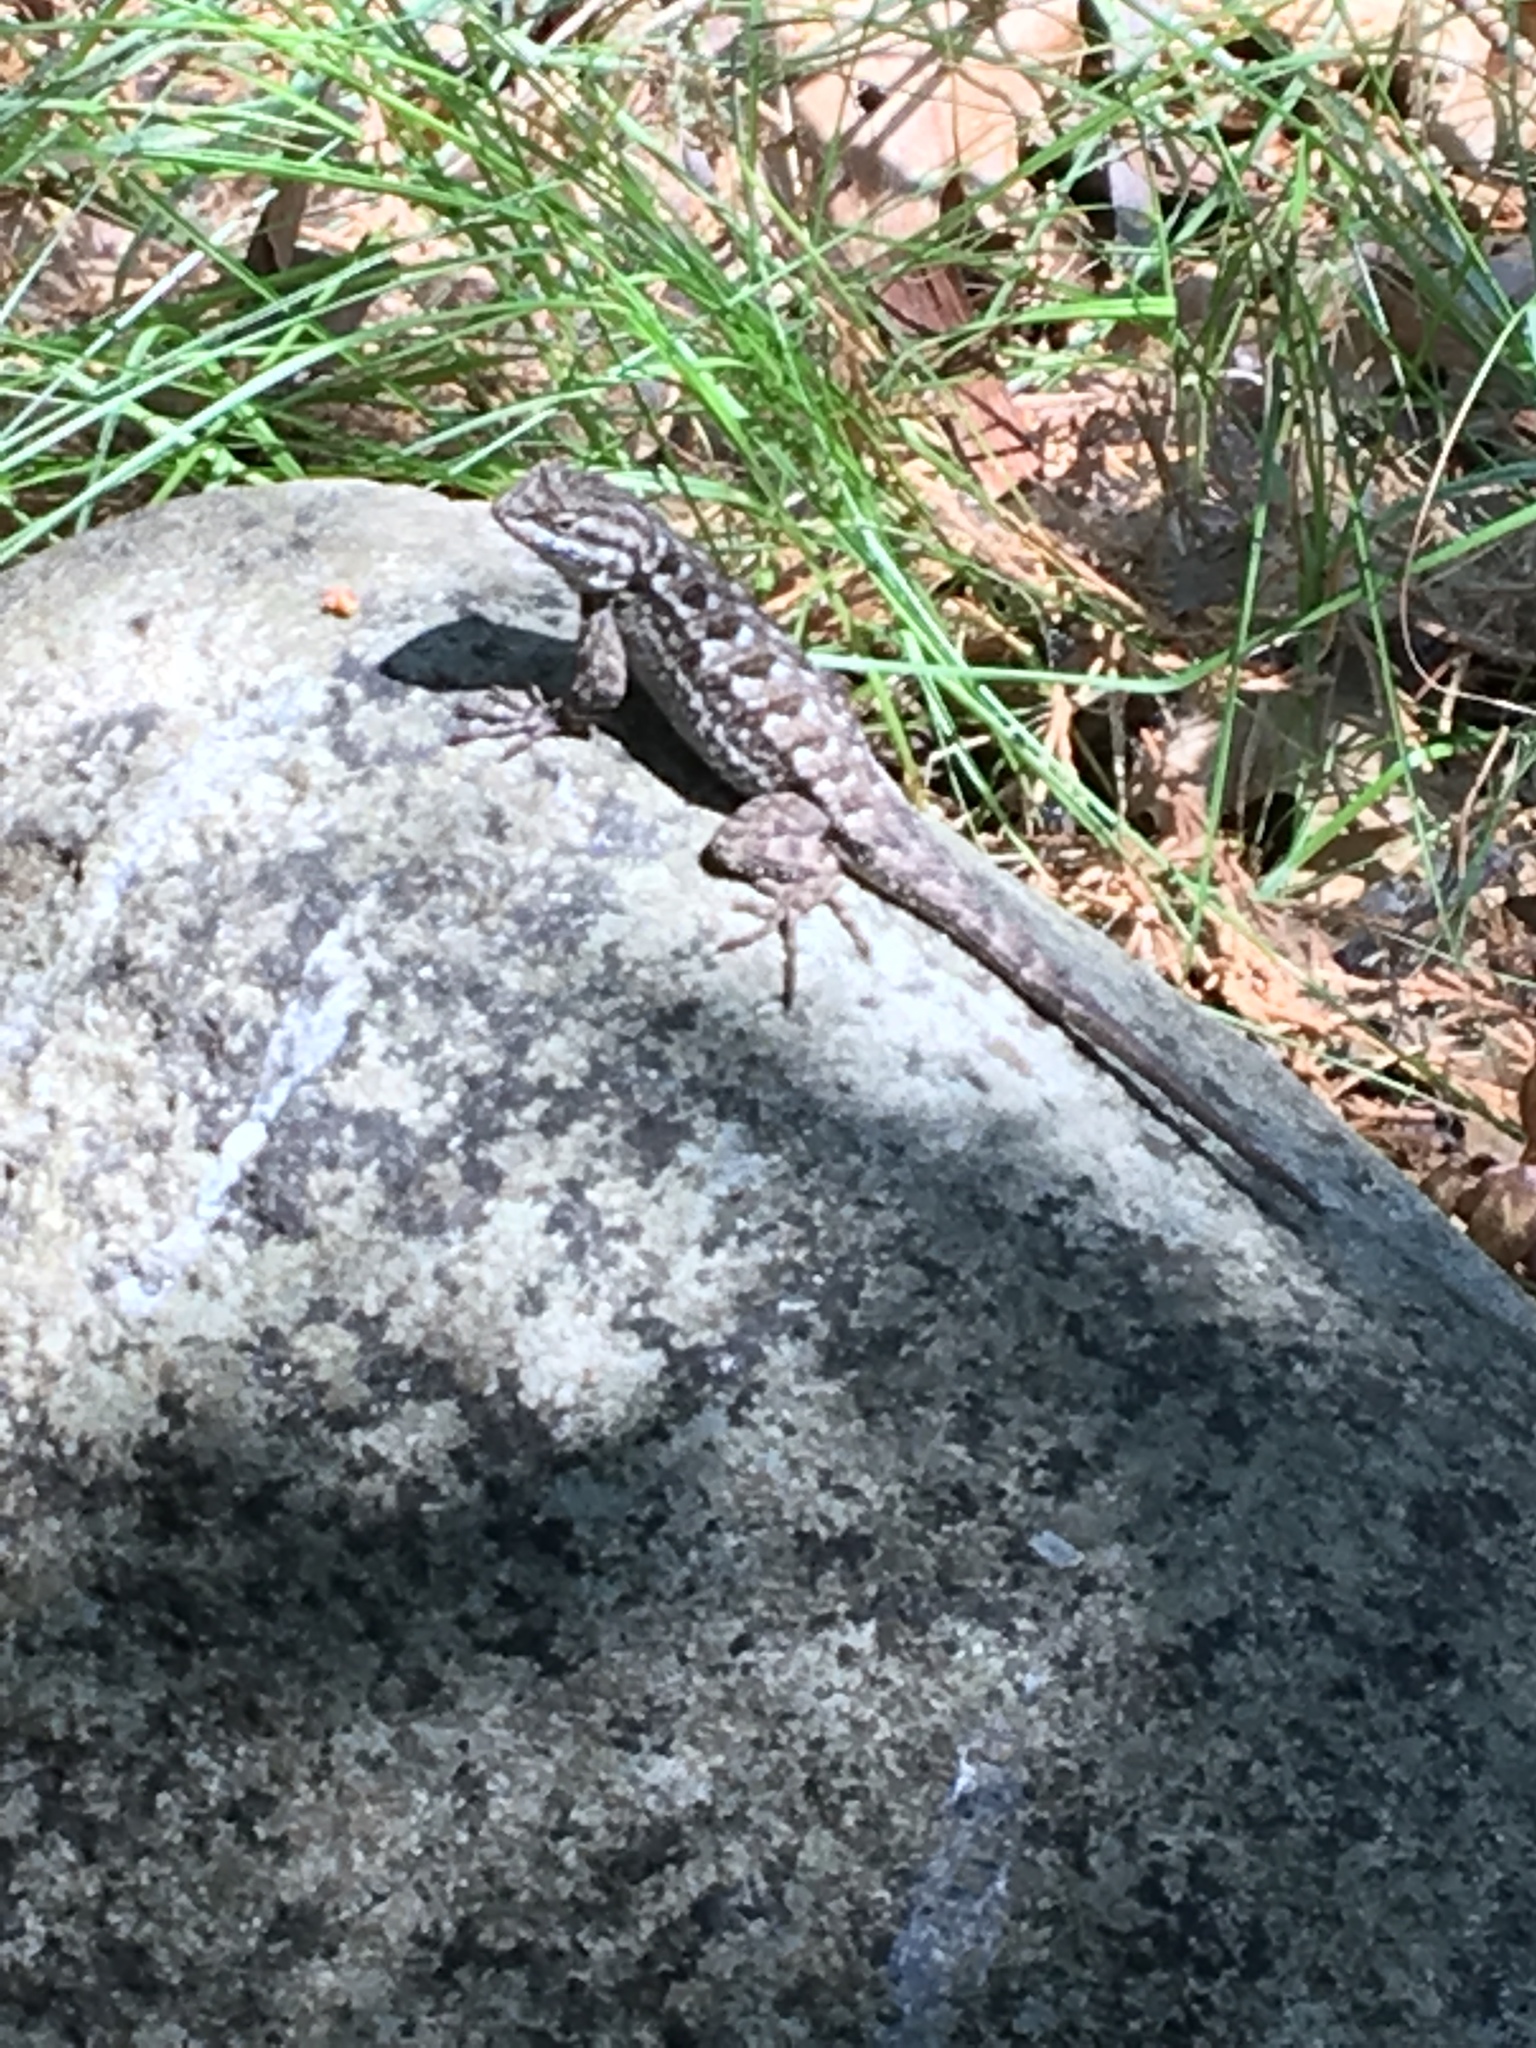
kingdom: Animalia
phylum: Chordata
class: Squamata
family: Phrynosomatidae
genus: Sceloporus
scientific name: Sceloporus occidentalis
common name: Western fence lizard
